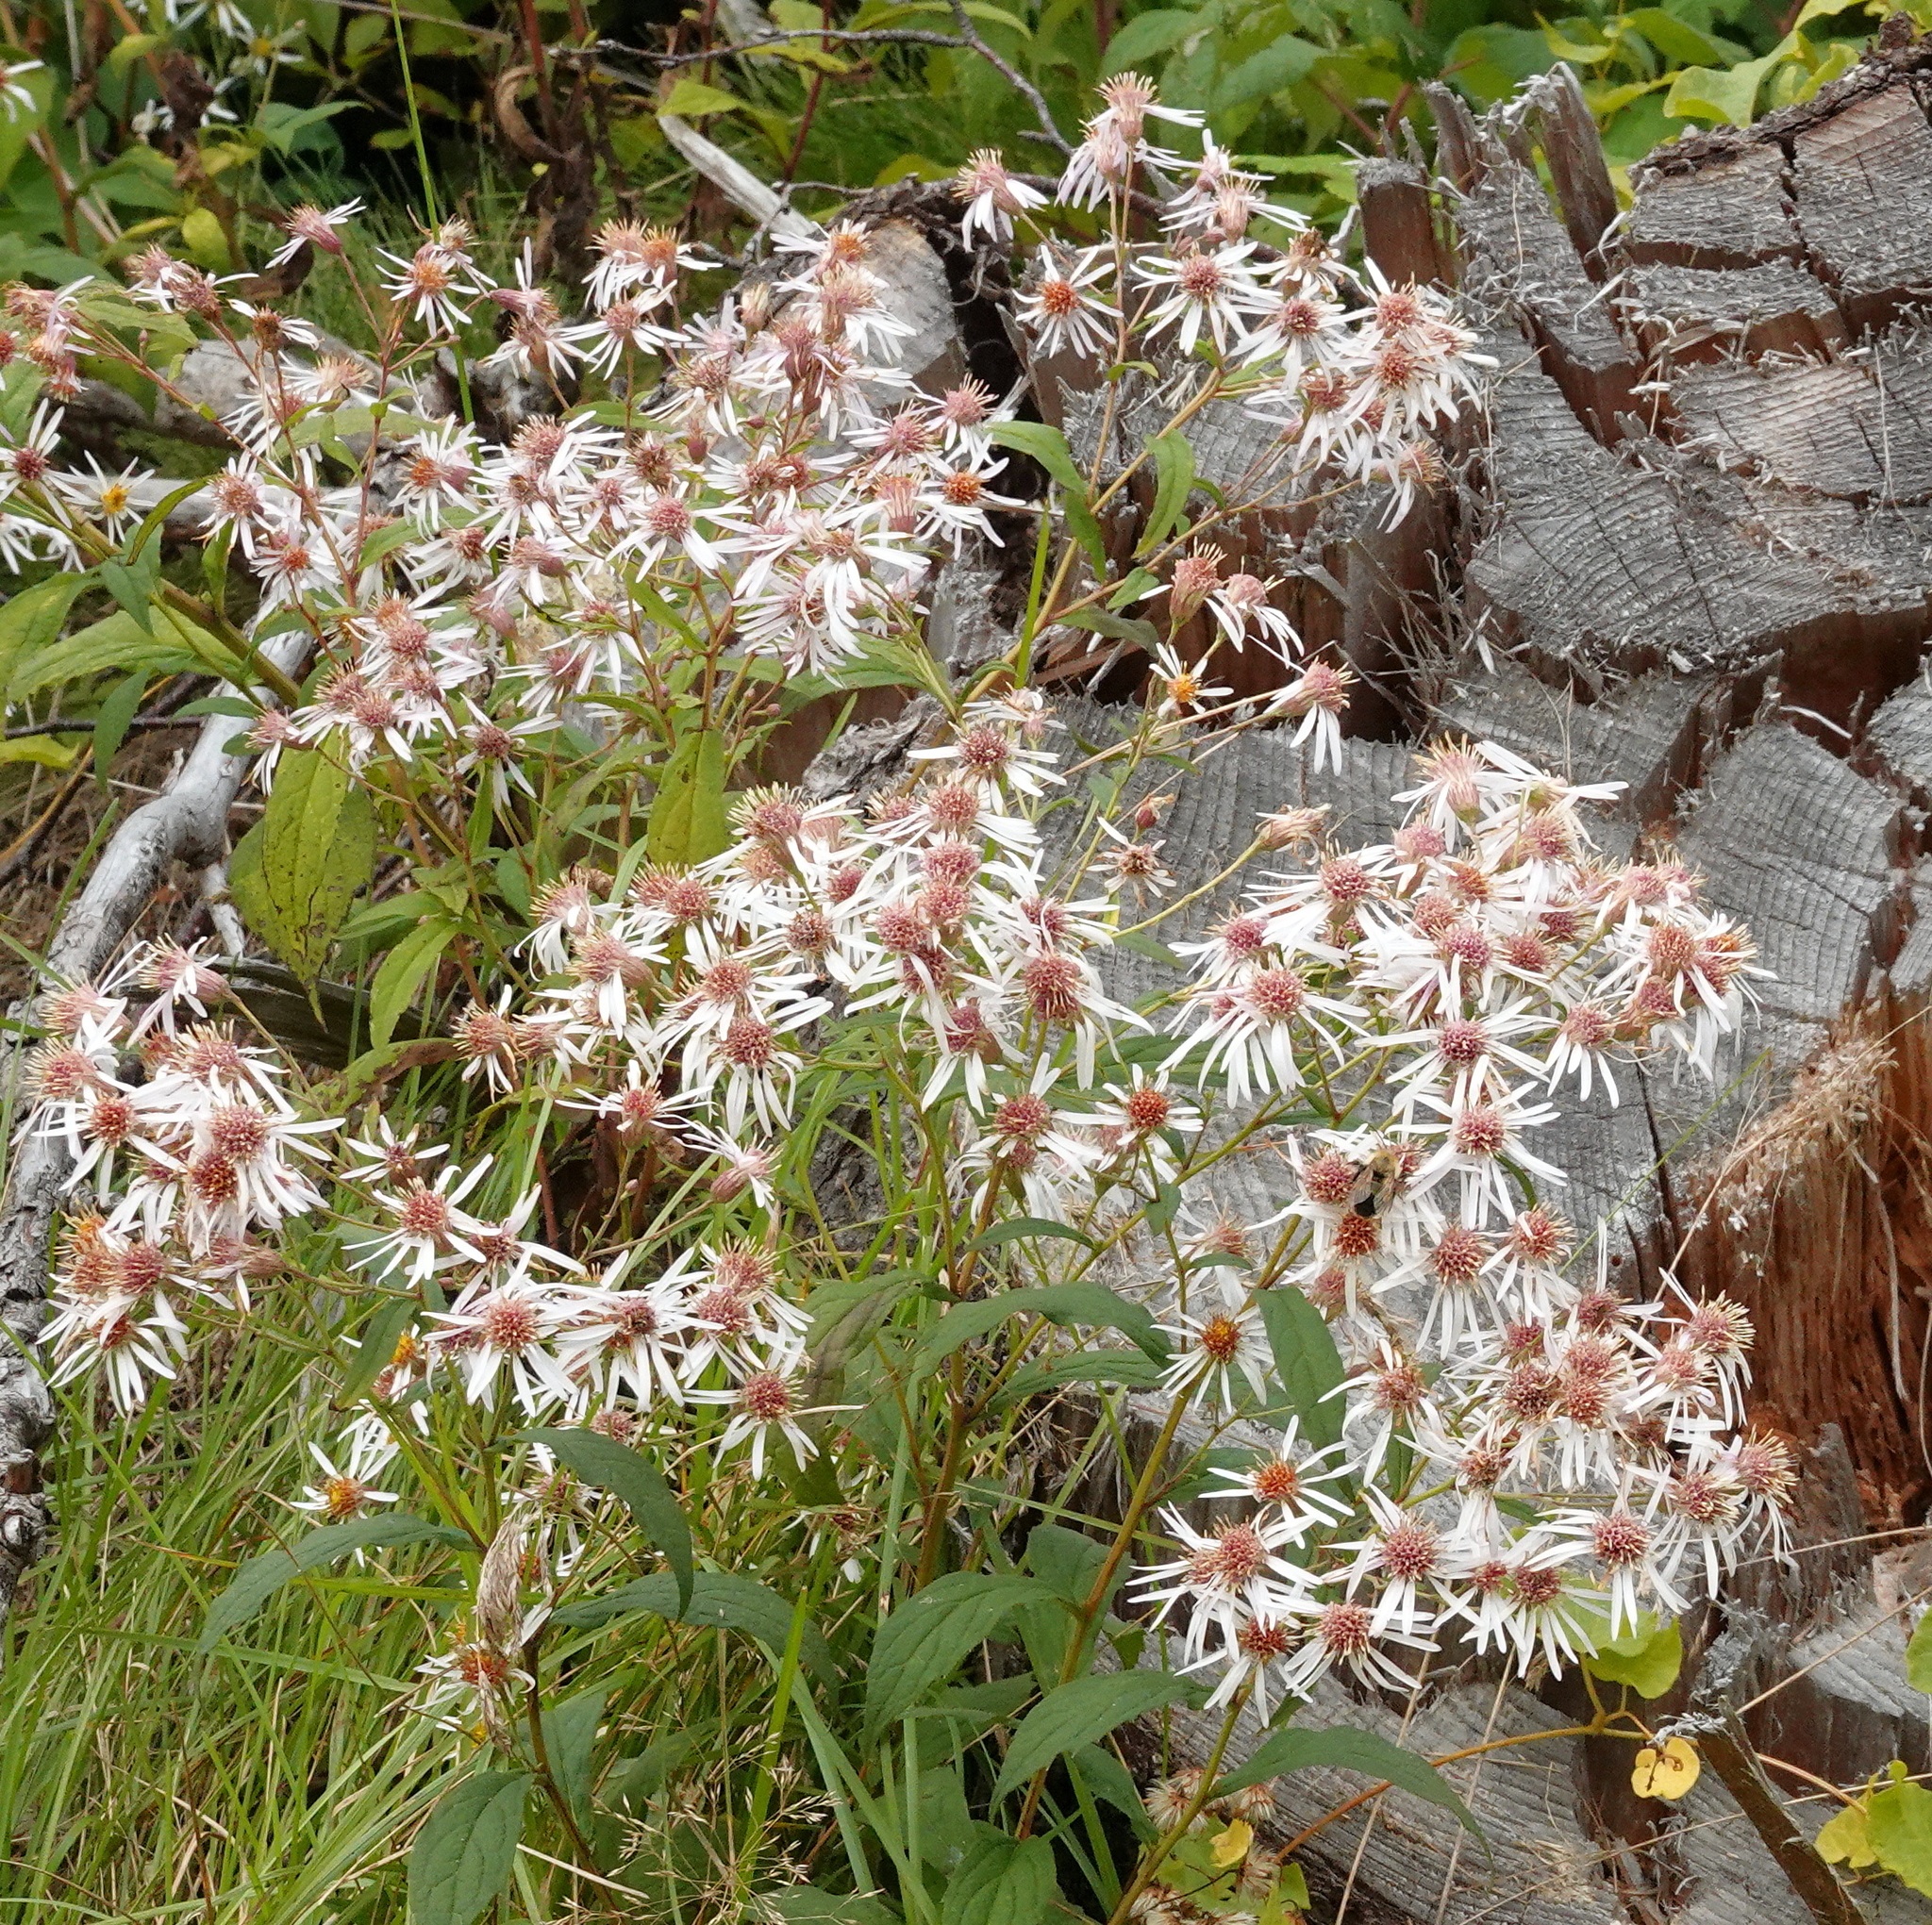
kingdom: Plantae
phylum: Tracheophyta
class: Magnoliopsida
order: Asterales
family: Asteraceae
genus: Oclemena
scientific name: Oclemena acuminata
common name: Mountain aster
